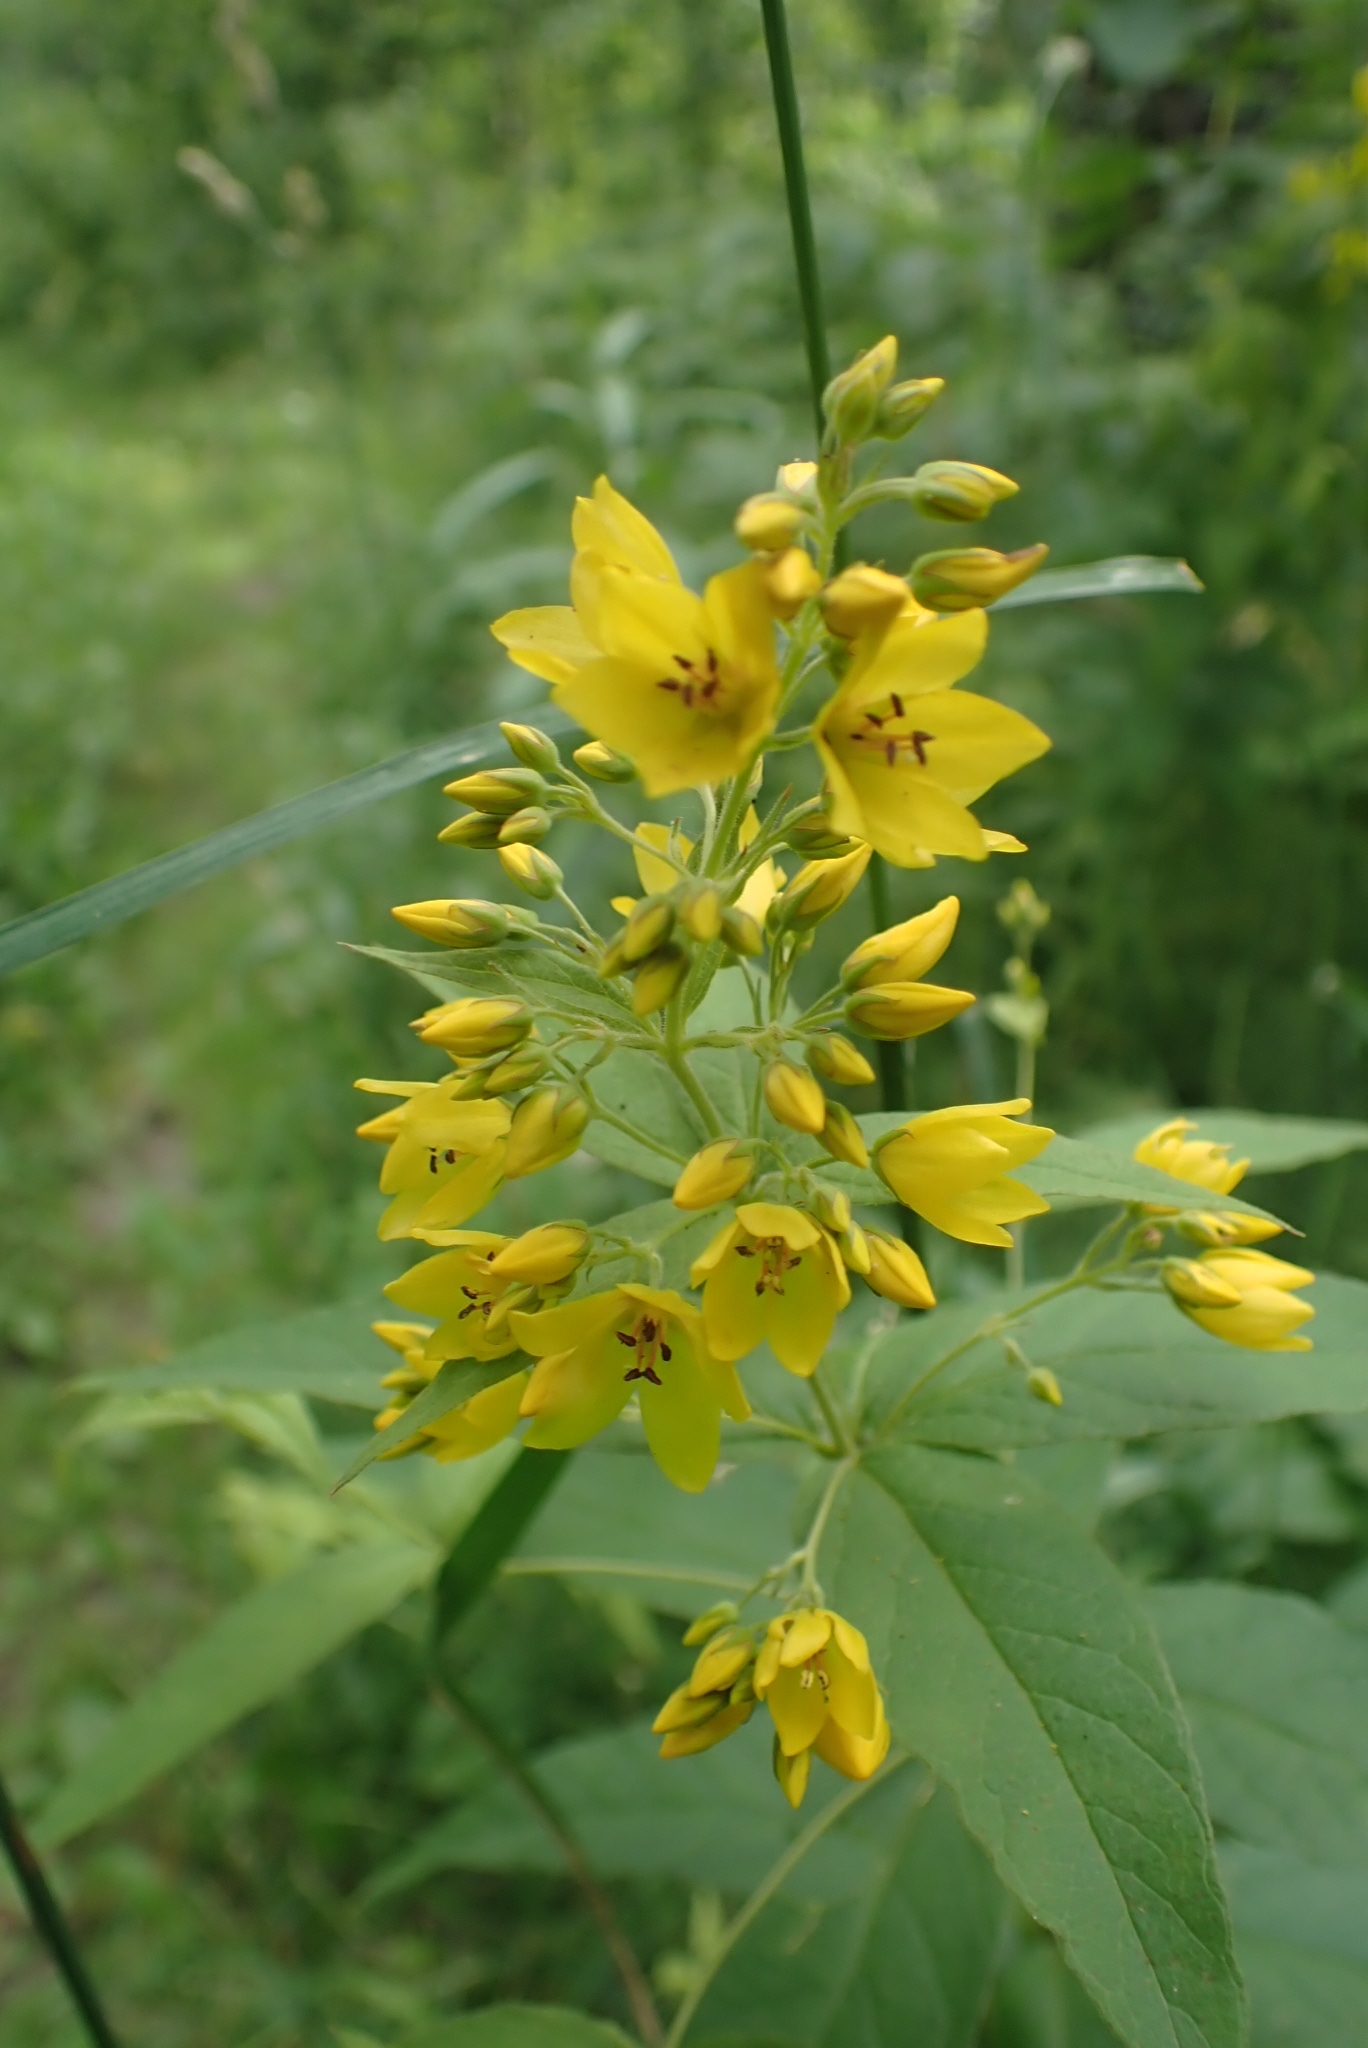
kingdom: Plantae
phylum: Tracheophyta
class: Magnoliopsida
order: Ericales
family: Primulaceae
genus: Lysimachia
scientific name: Lysimachia vulgaris
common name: Yellow loosestrife
